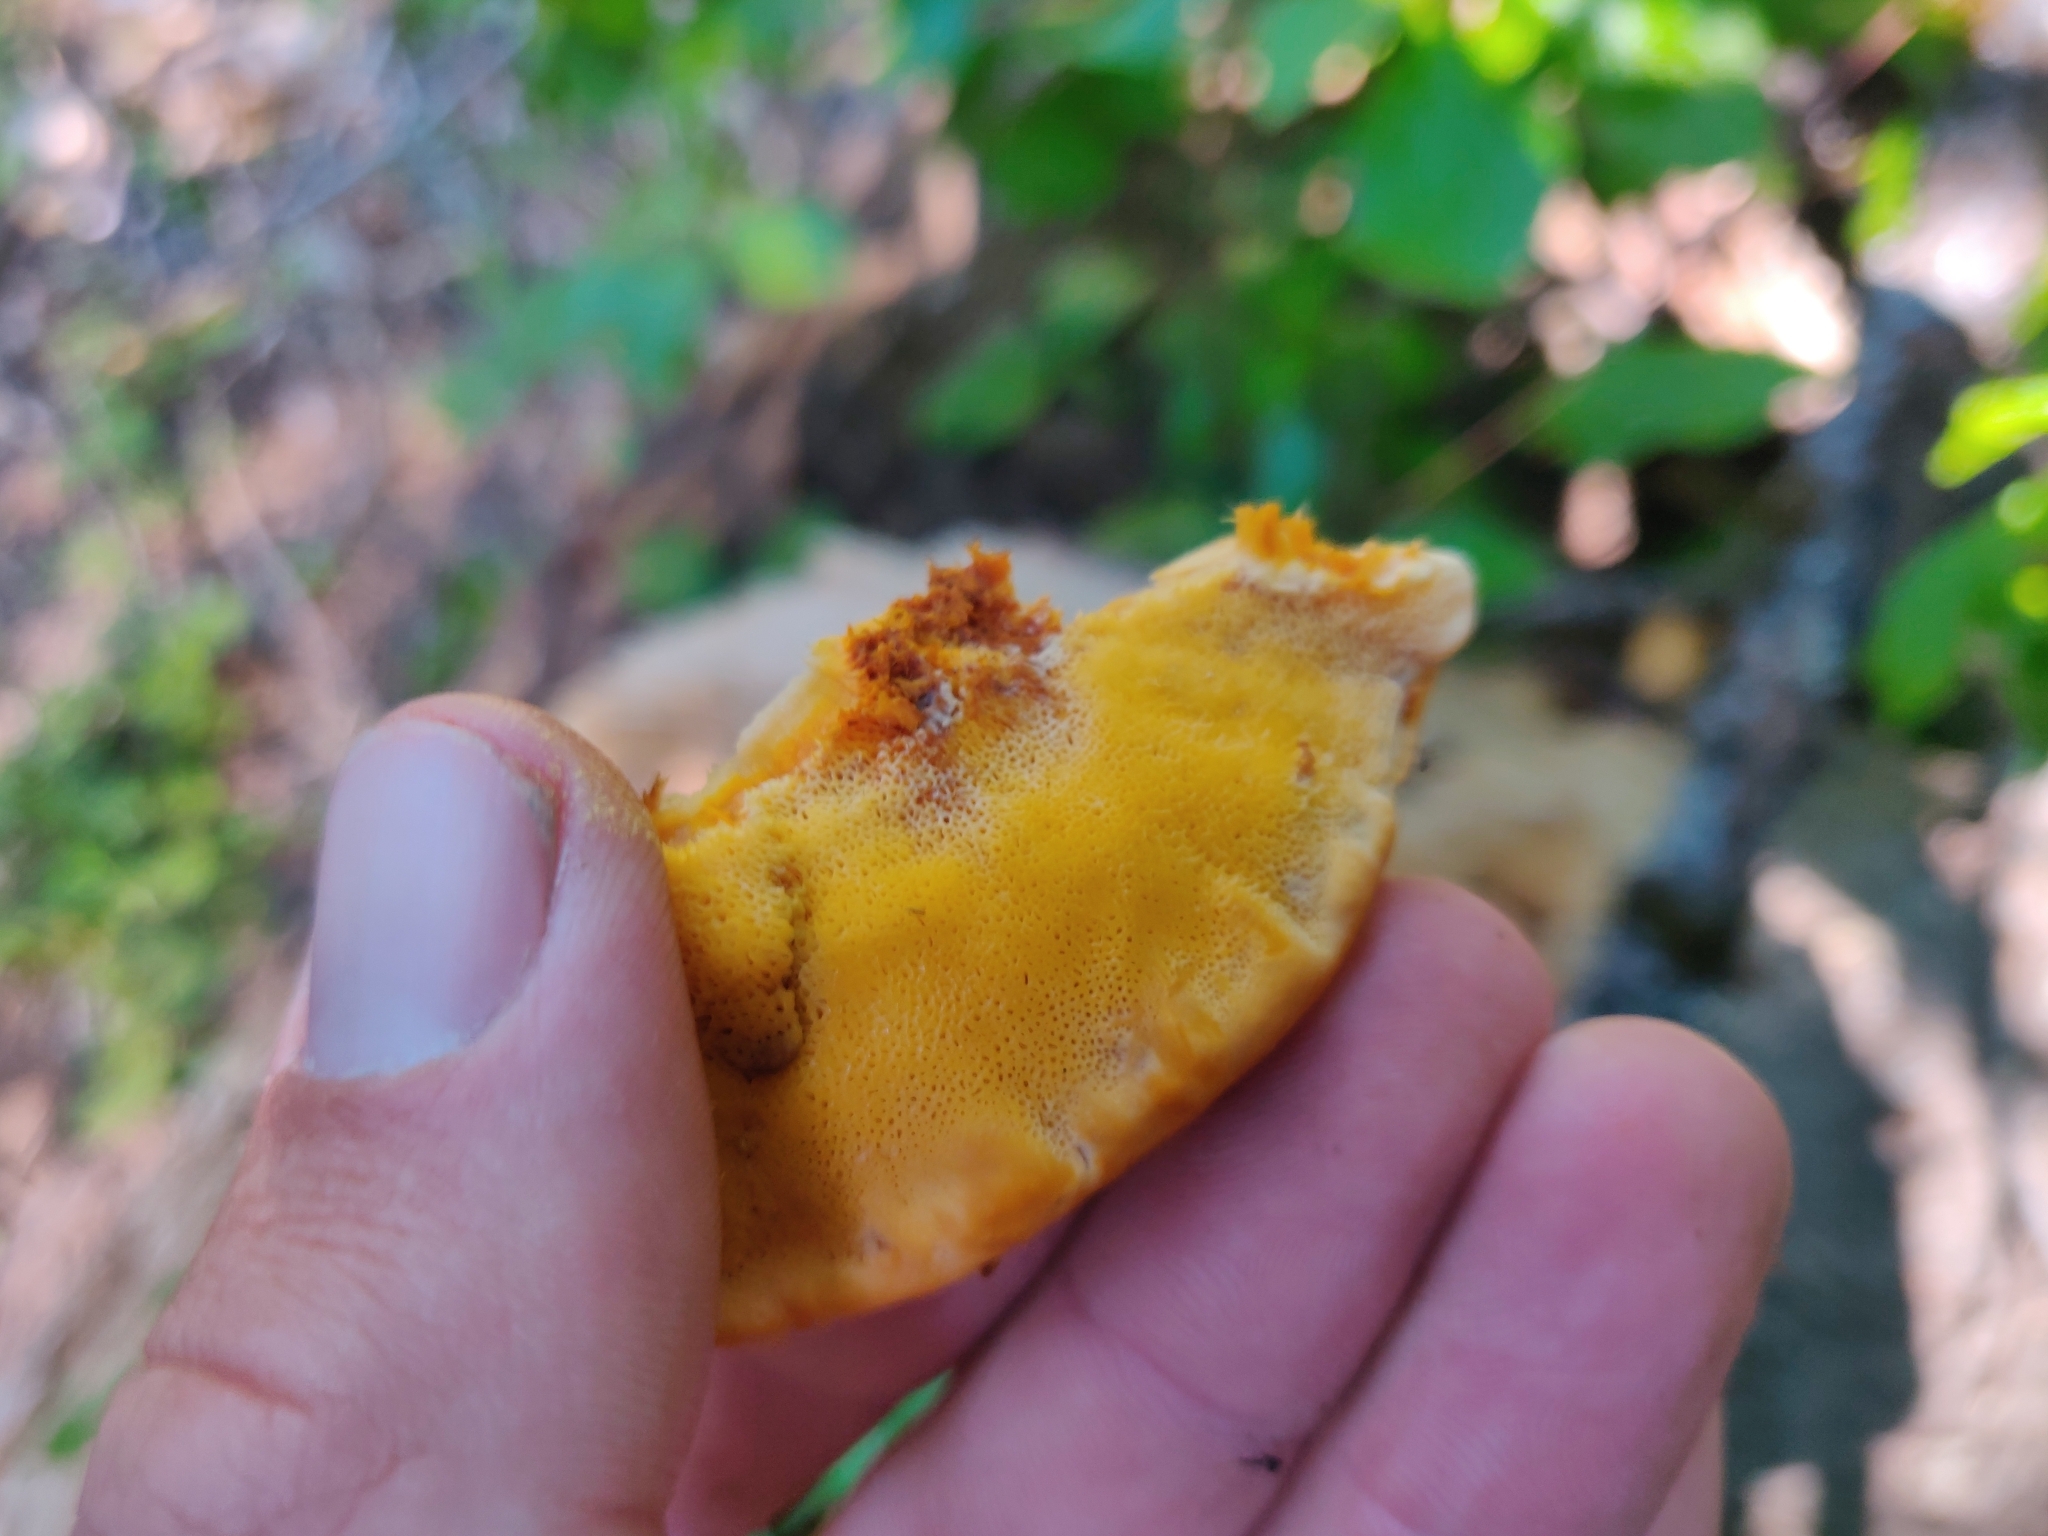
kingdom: Fungi
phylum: Basidiomycota
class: Agaricomycetes
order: Polyporales
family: Pycnoporellaceae
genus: Pycnoporellus
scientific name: Pycnoporellus fulgens
